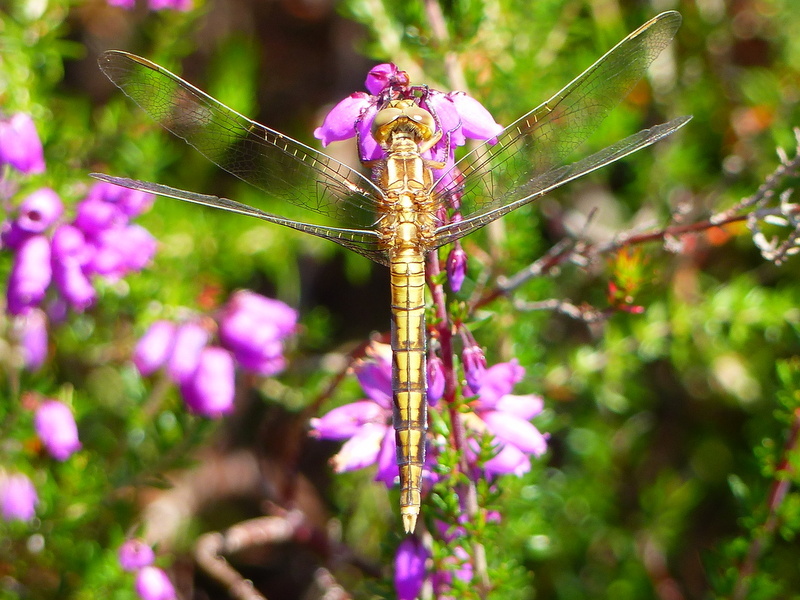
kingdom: Animalia
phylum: Arthropoda
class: Insecta
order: Odonata
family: Libellulidae
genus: Orthetrum
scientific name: Orthetrum coerulescens
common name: Keeled skimmer
